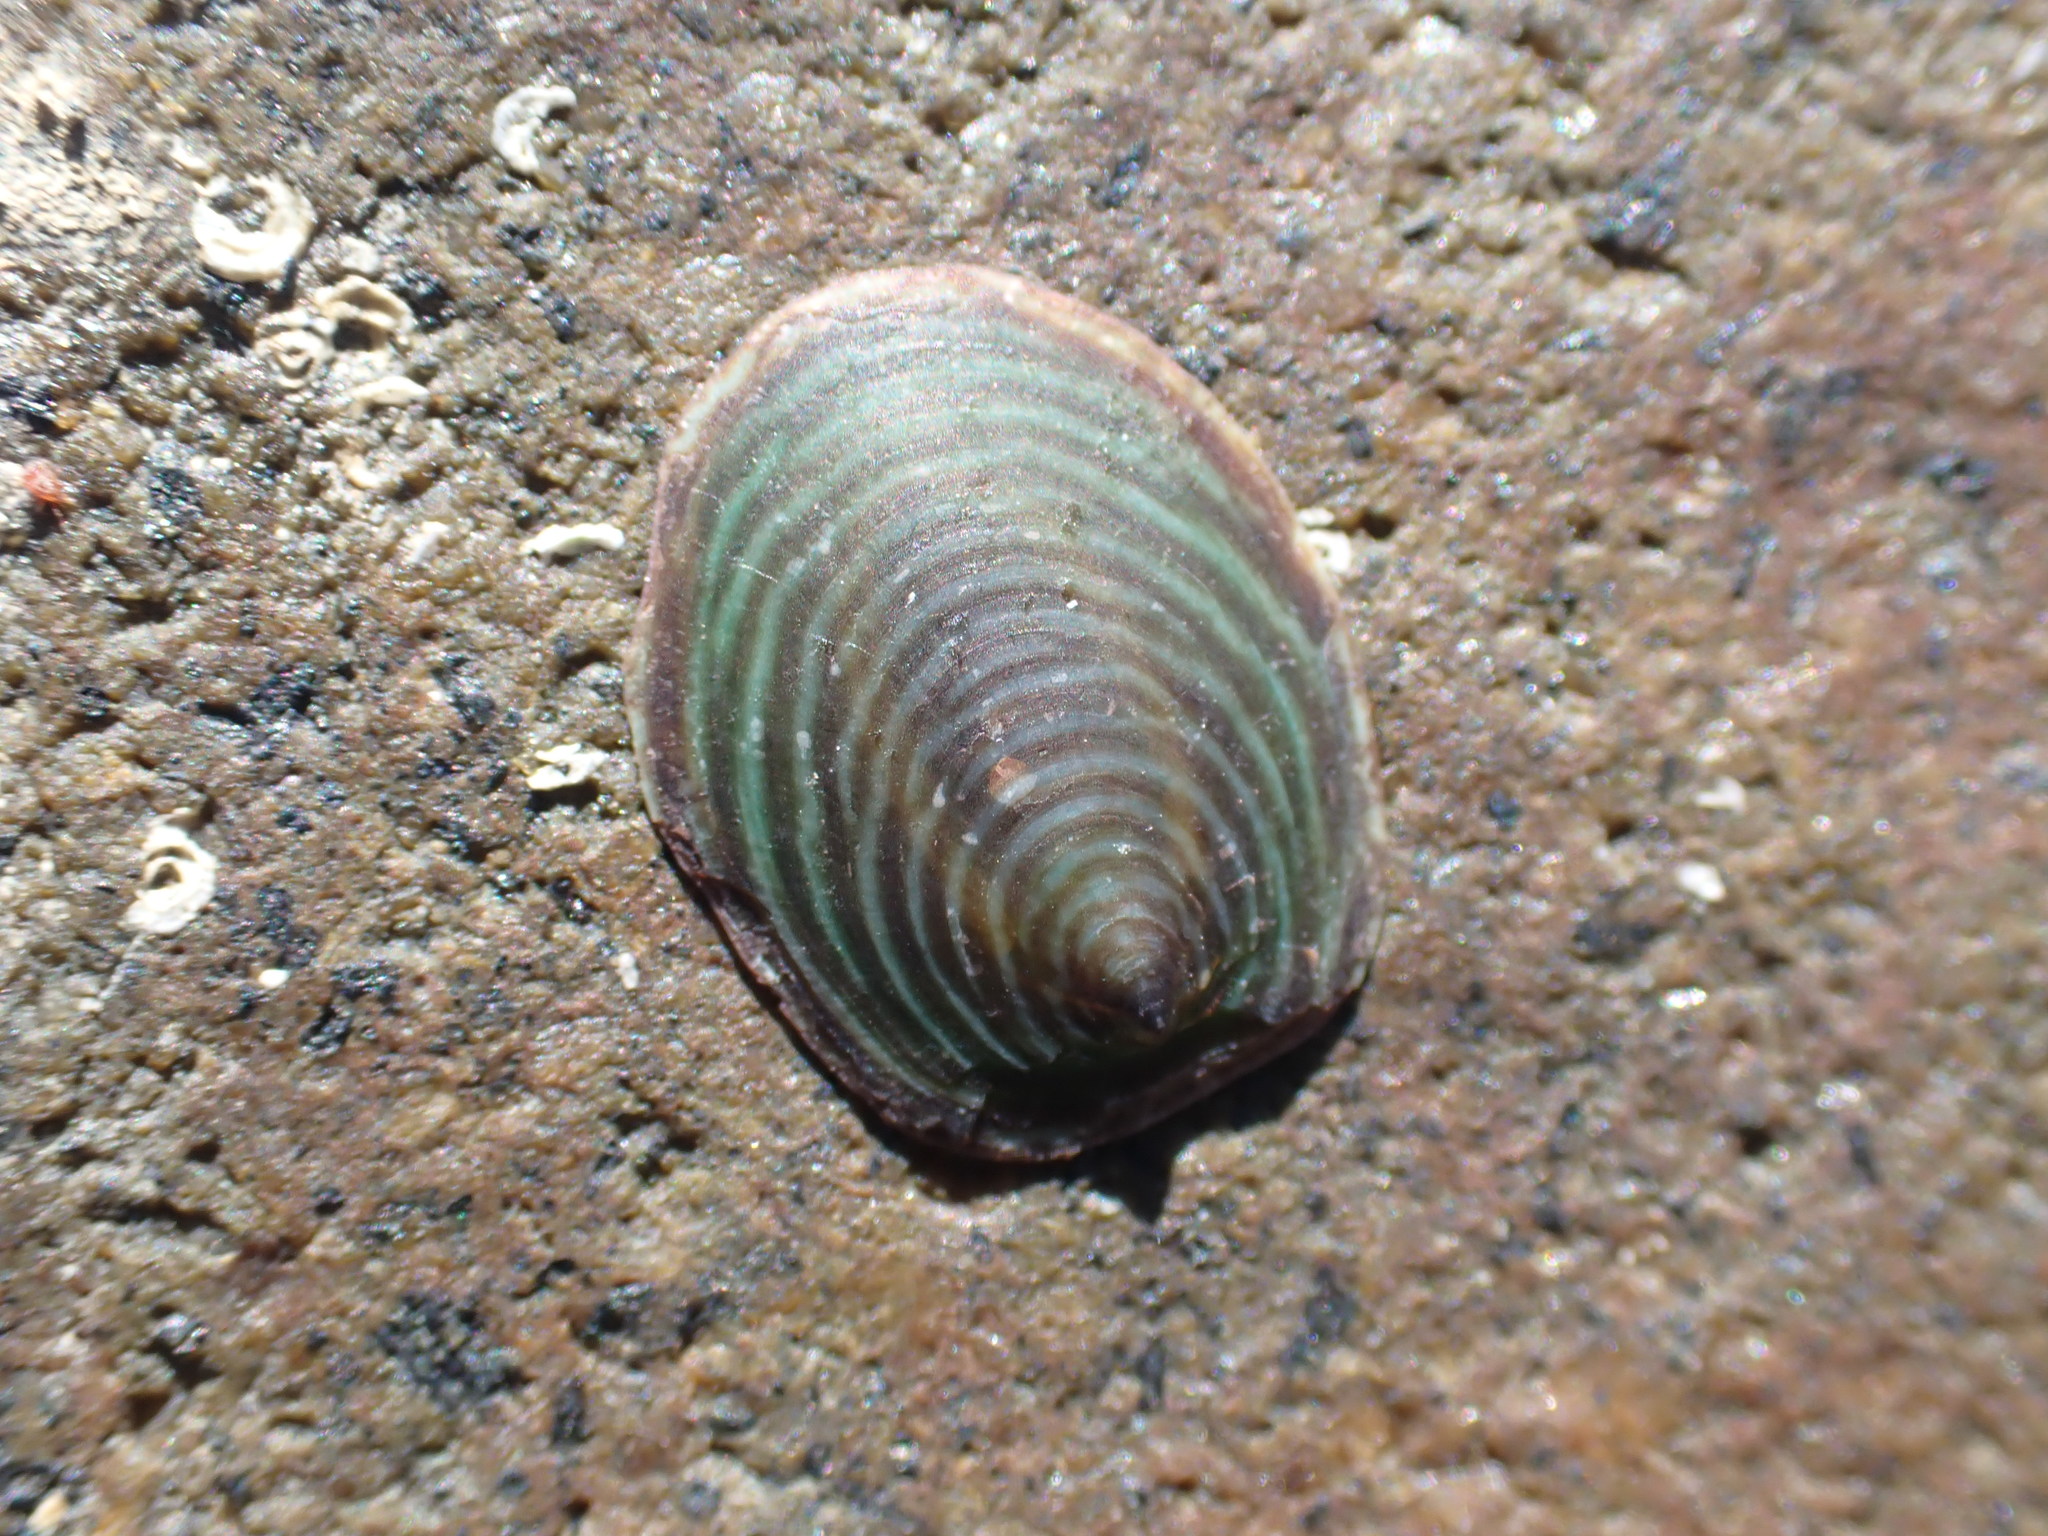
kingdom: Animalia
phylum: Mollusca
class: Gastropoda
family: Lottiidae
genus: Atalacmea
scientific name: Atalacmea fragilis
